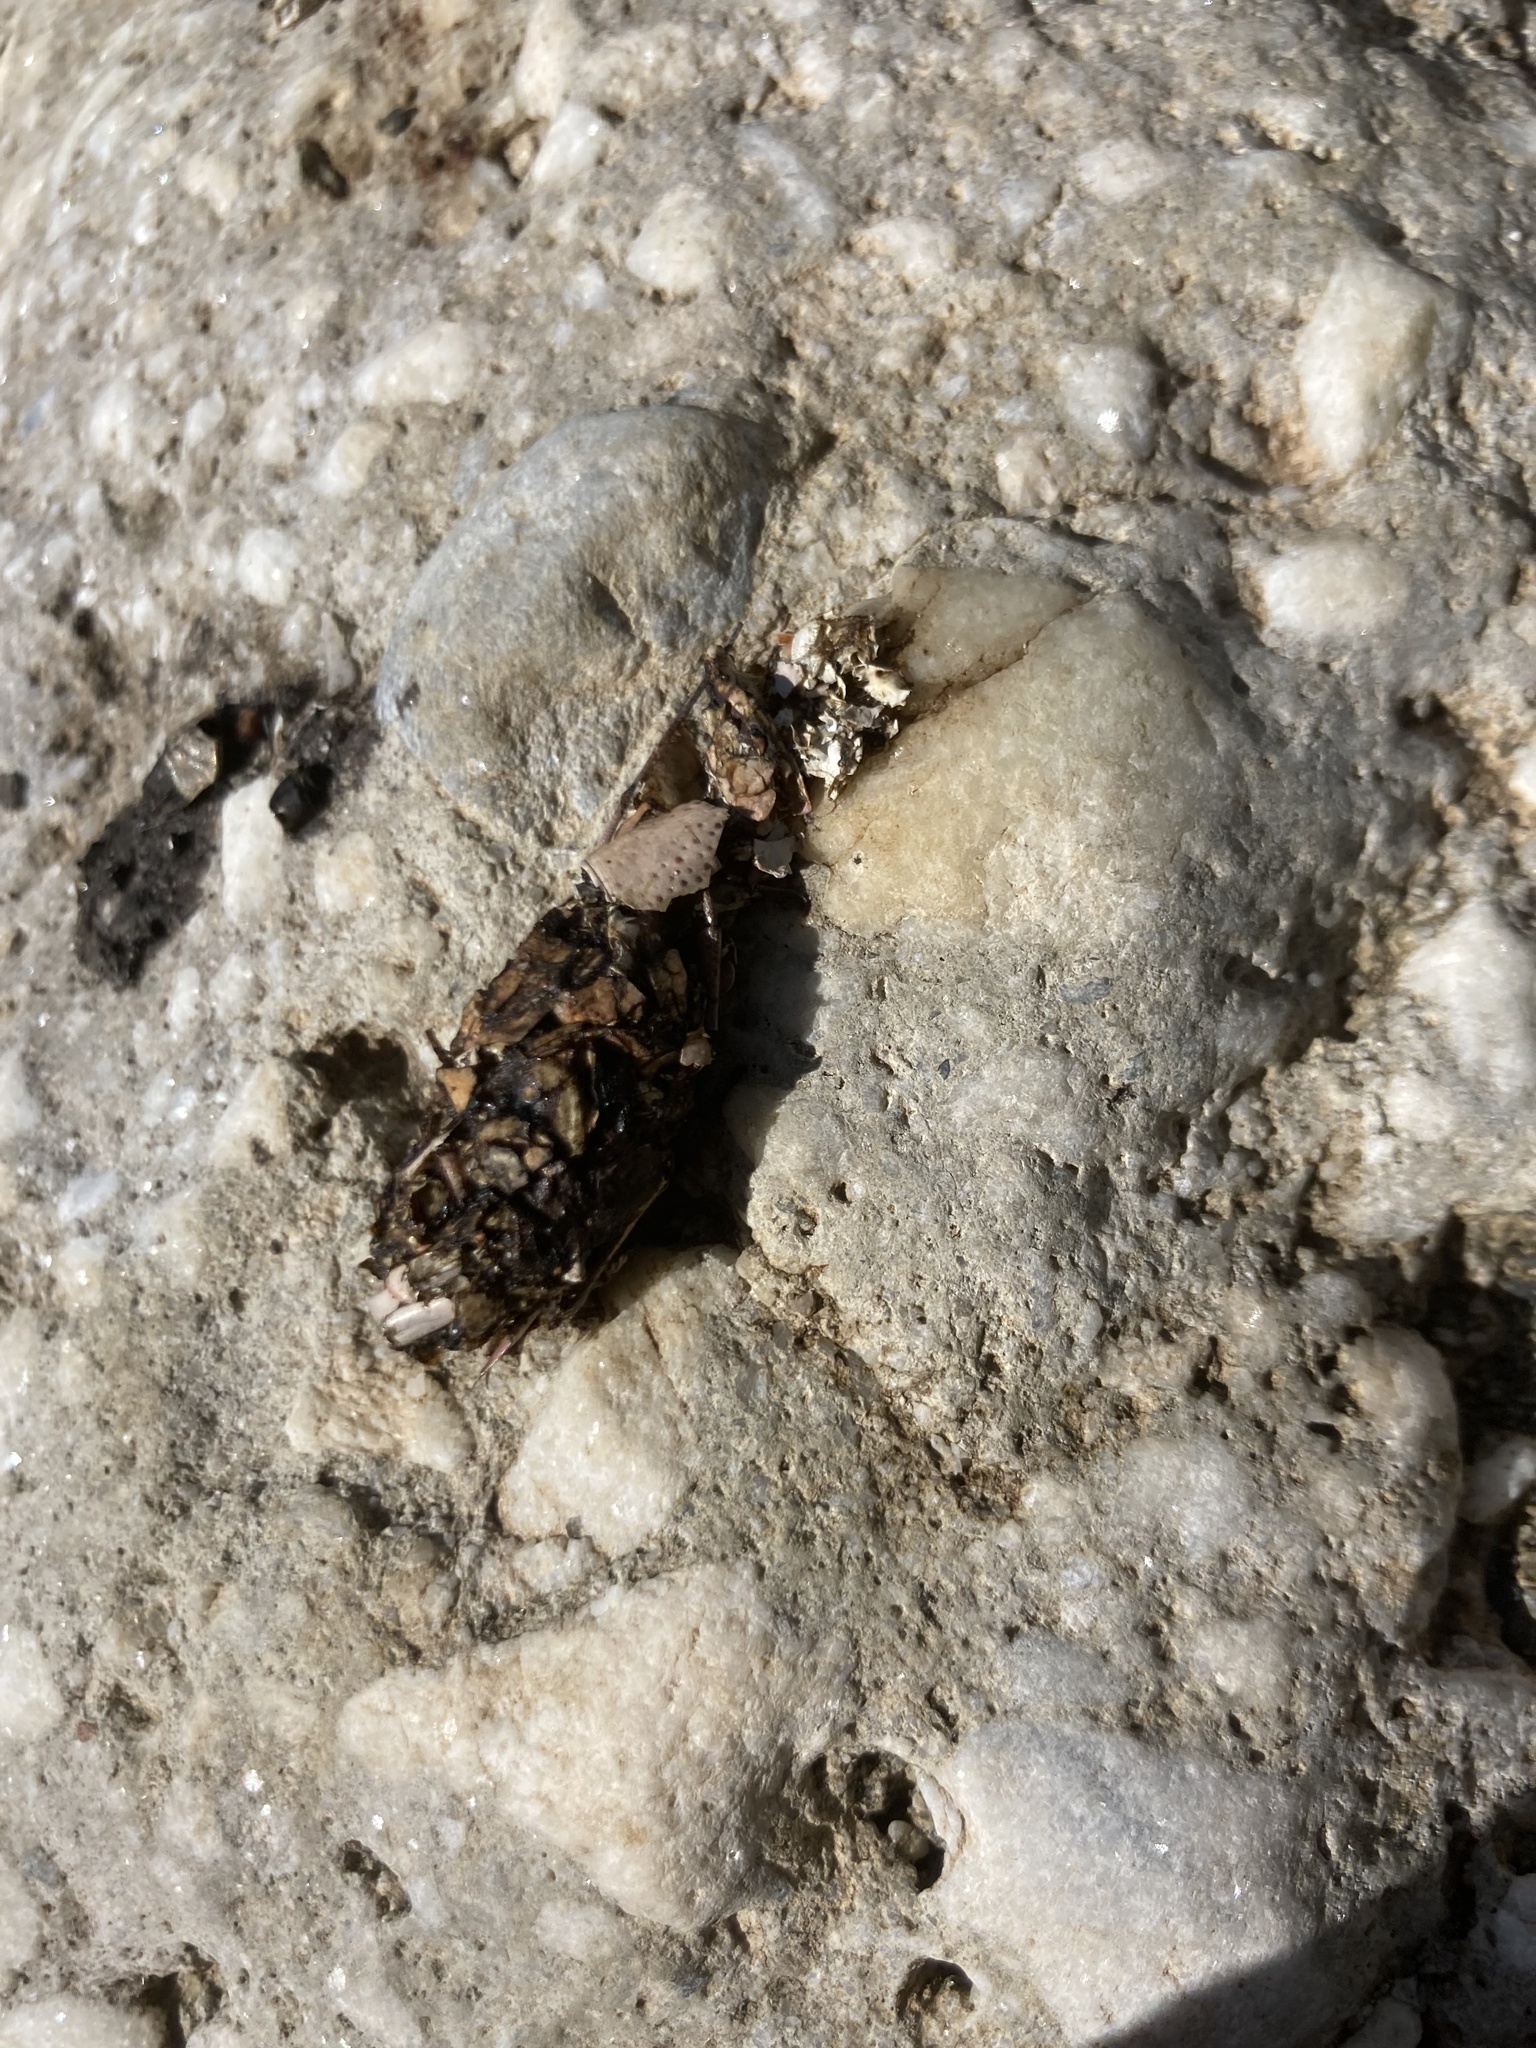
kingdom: Animalia
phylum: Chordata
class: Mammalia
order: Carnivora
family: Mustelidae
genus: Lutra
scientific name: Lutra lutra
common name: European otter
